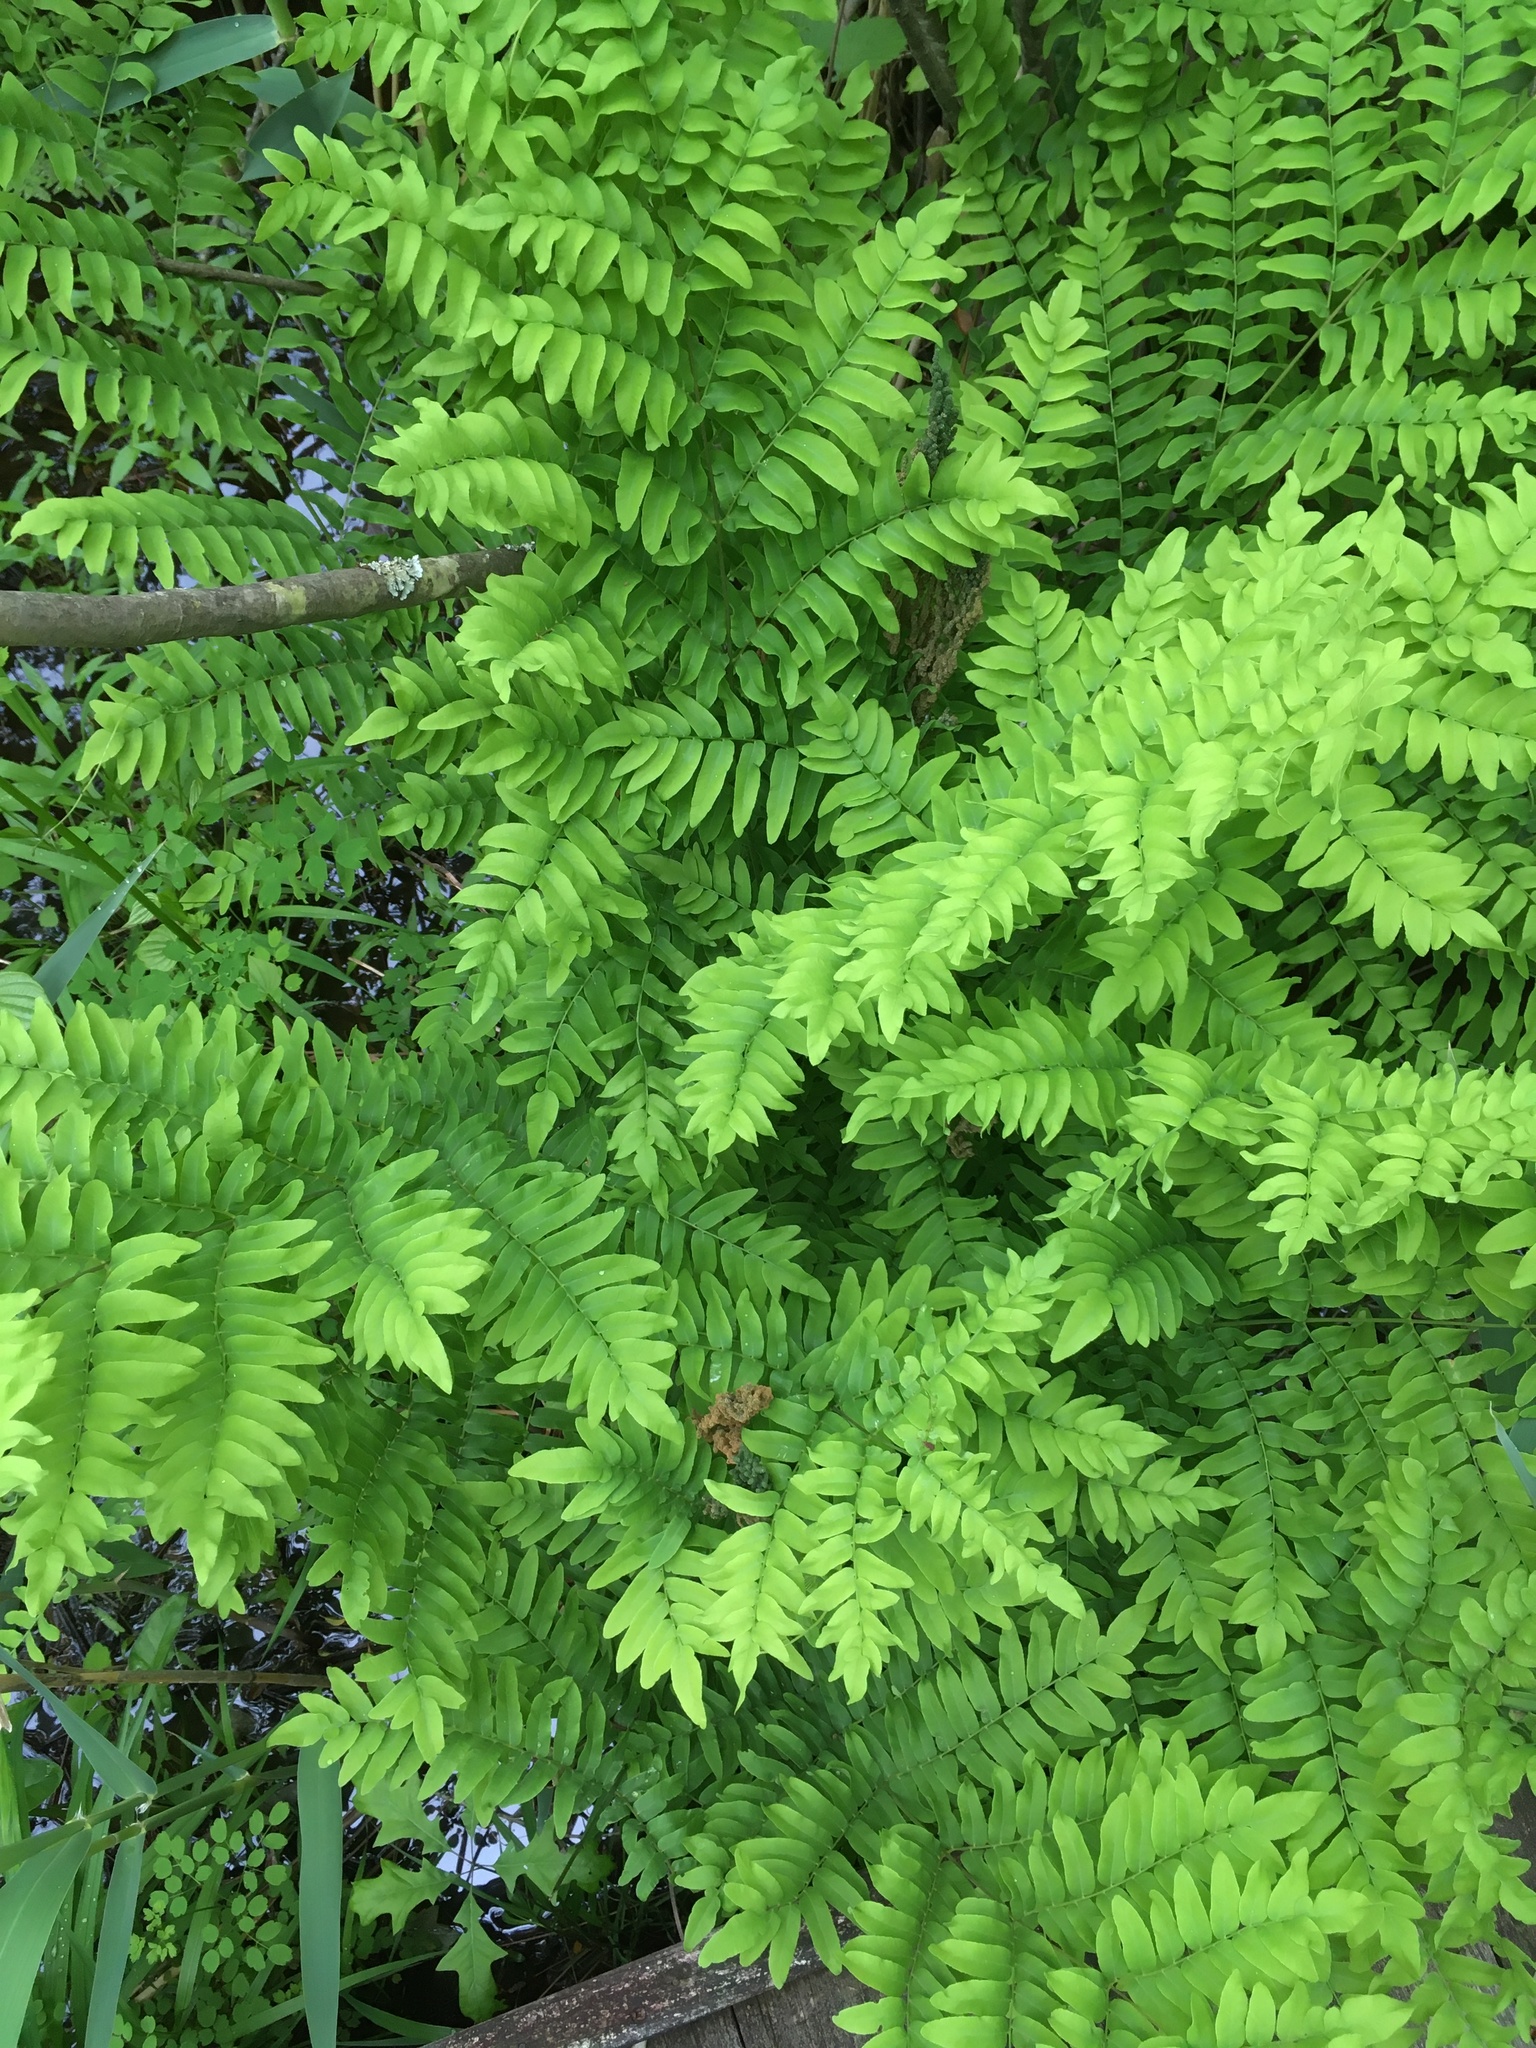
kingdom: Plantae
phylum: Tracheophyta
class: Polypodiopsida
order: Osmundales
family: Osmundaceae
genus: Osmunda
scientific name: Osmunda spectabilis
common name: American royal fern
